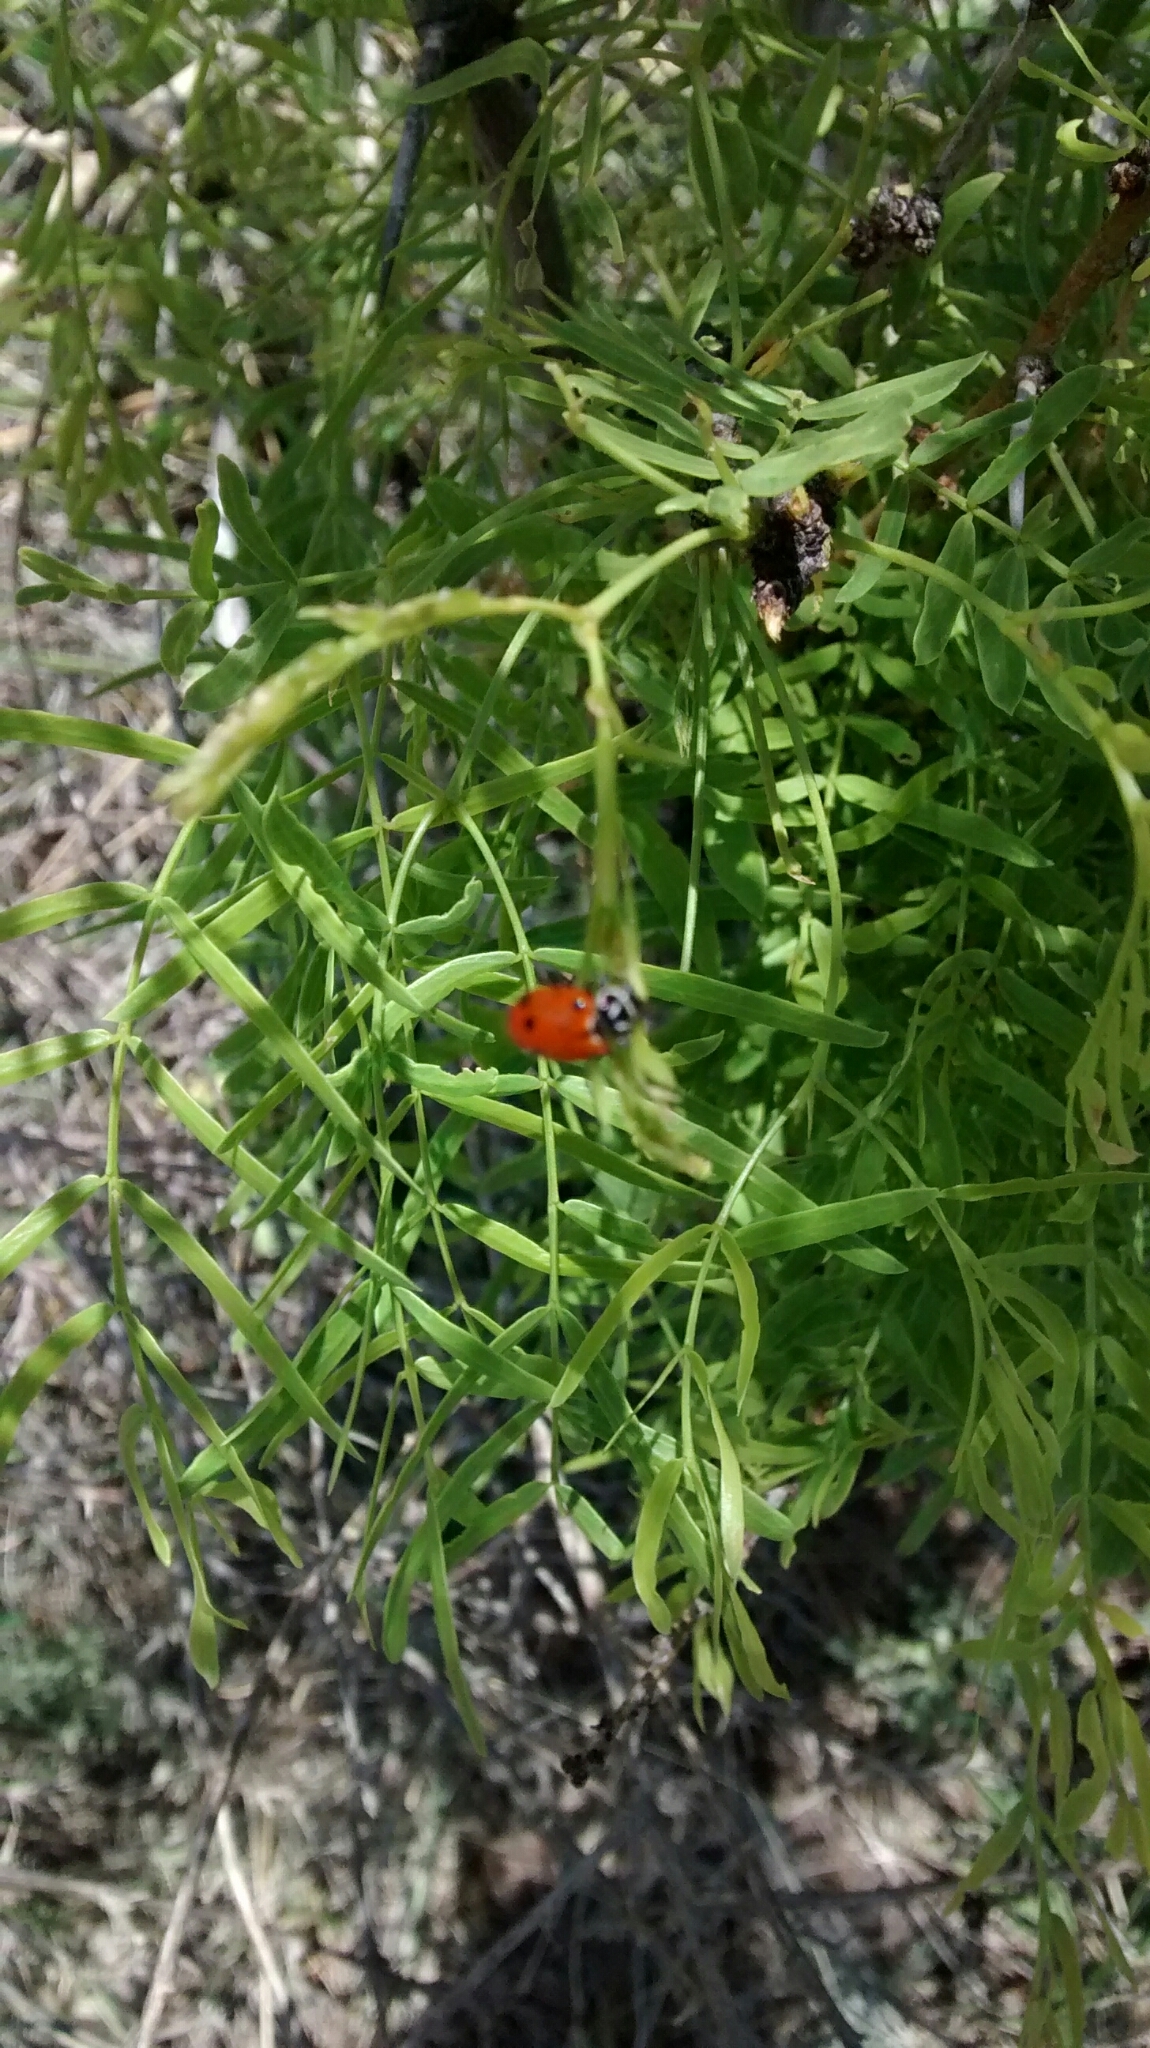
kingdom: Animalia
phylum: Arthropoda
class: Insecta
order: Coleoptera
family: Coccinellidae
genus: Hippodamia
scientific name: Hippodamia convergens
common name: Convergent lady beetle
